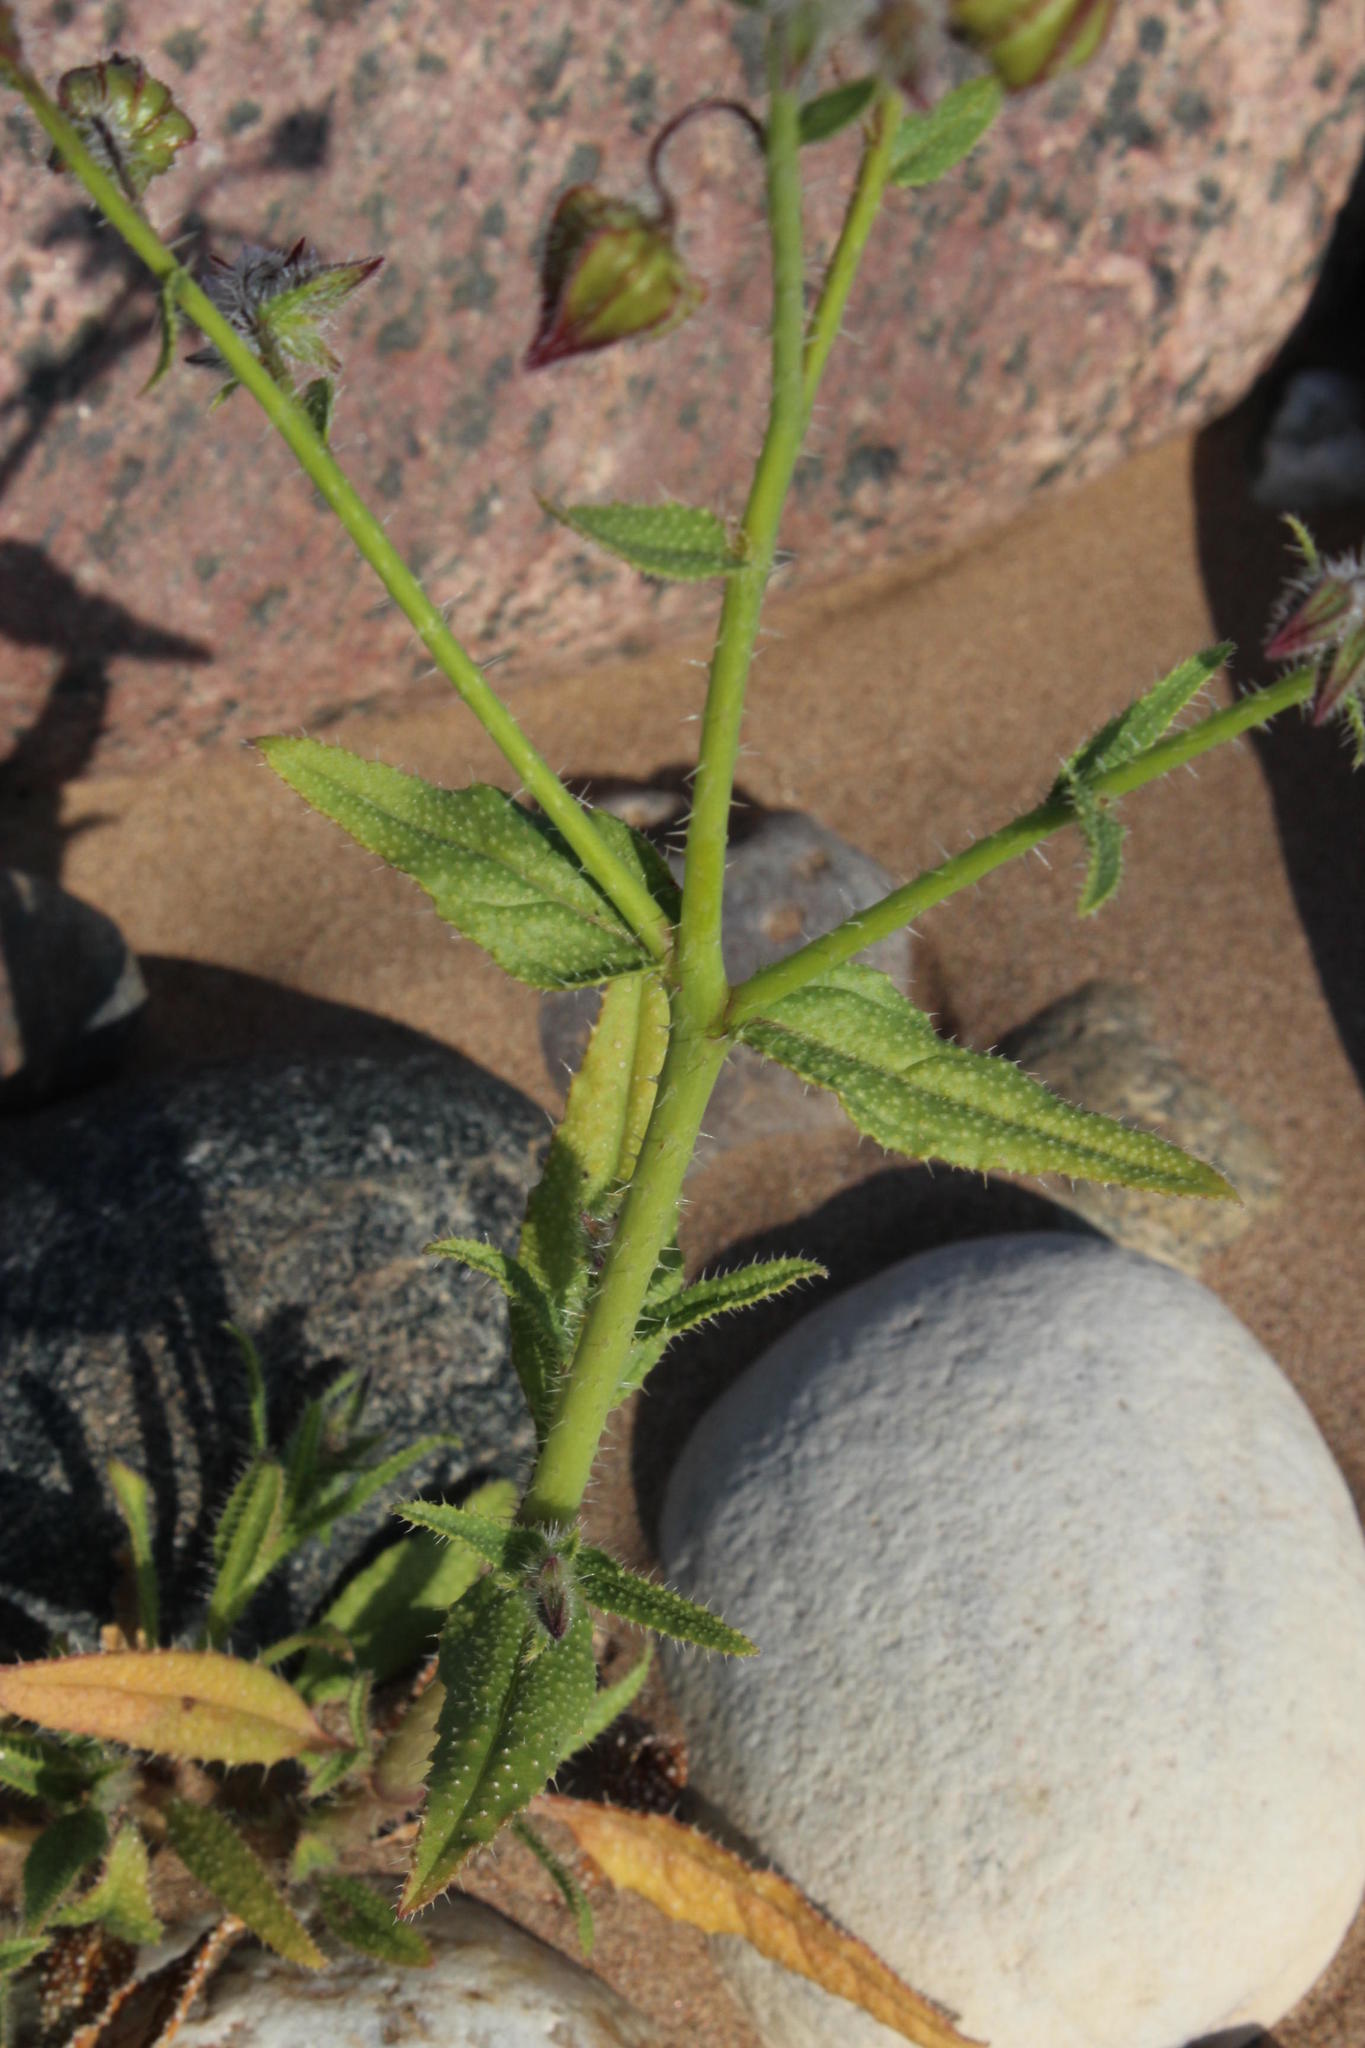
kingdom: Plantae
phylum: Tracheophyta
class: Magnoliopsida
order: Boraginales
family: Boraginaceae
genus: Trichodesma
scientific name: Trichodesma africanum
